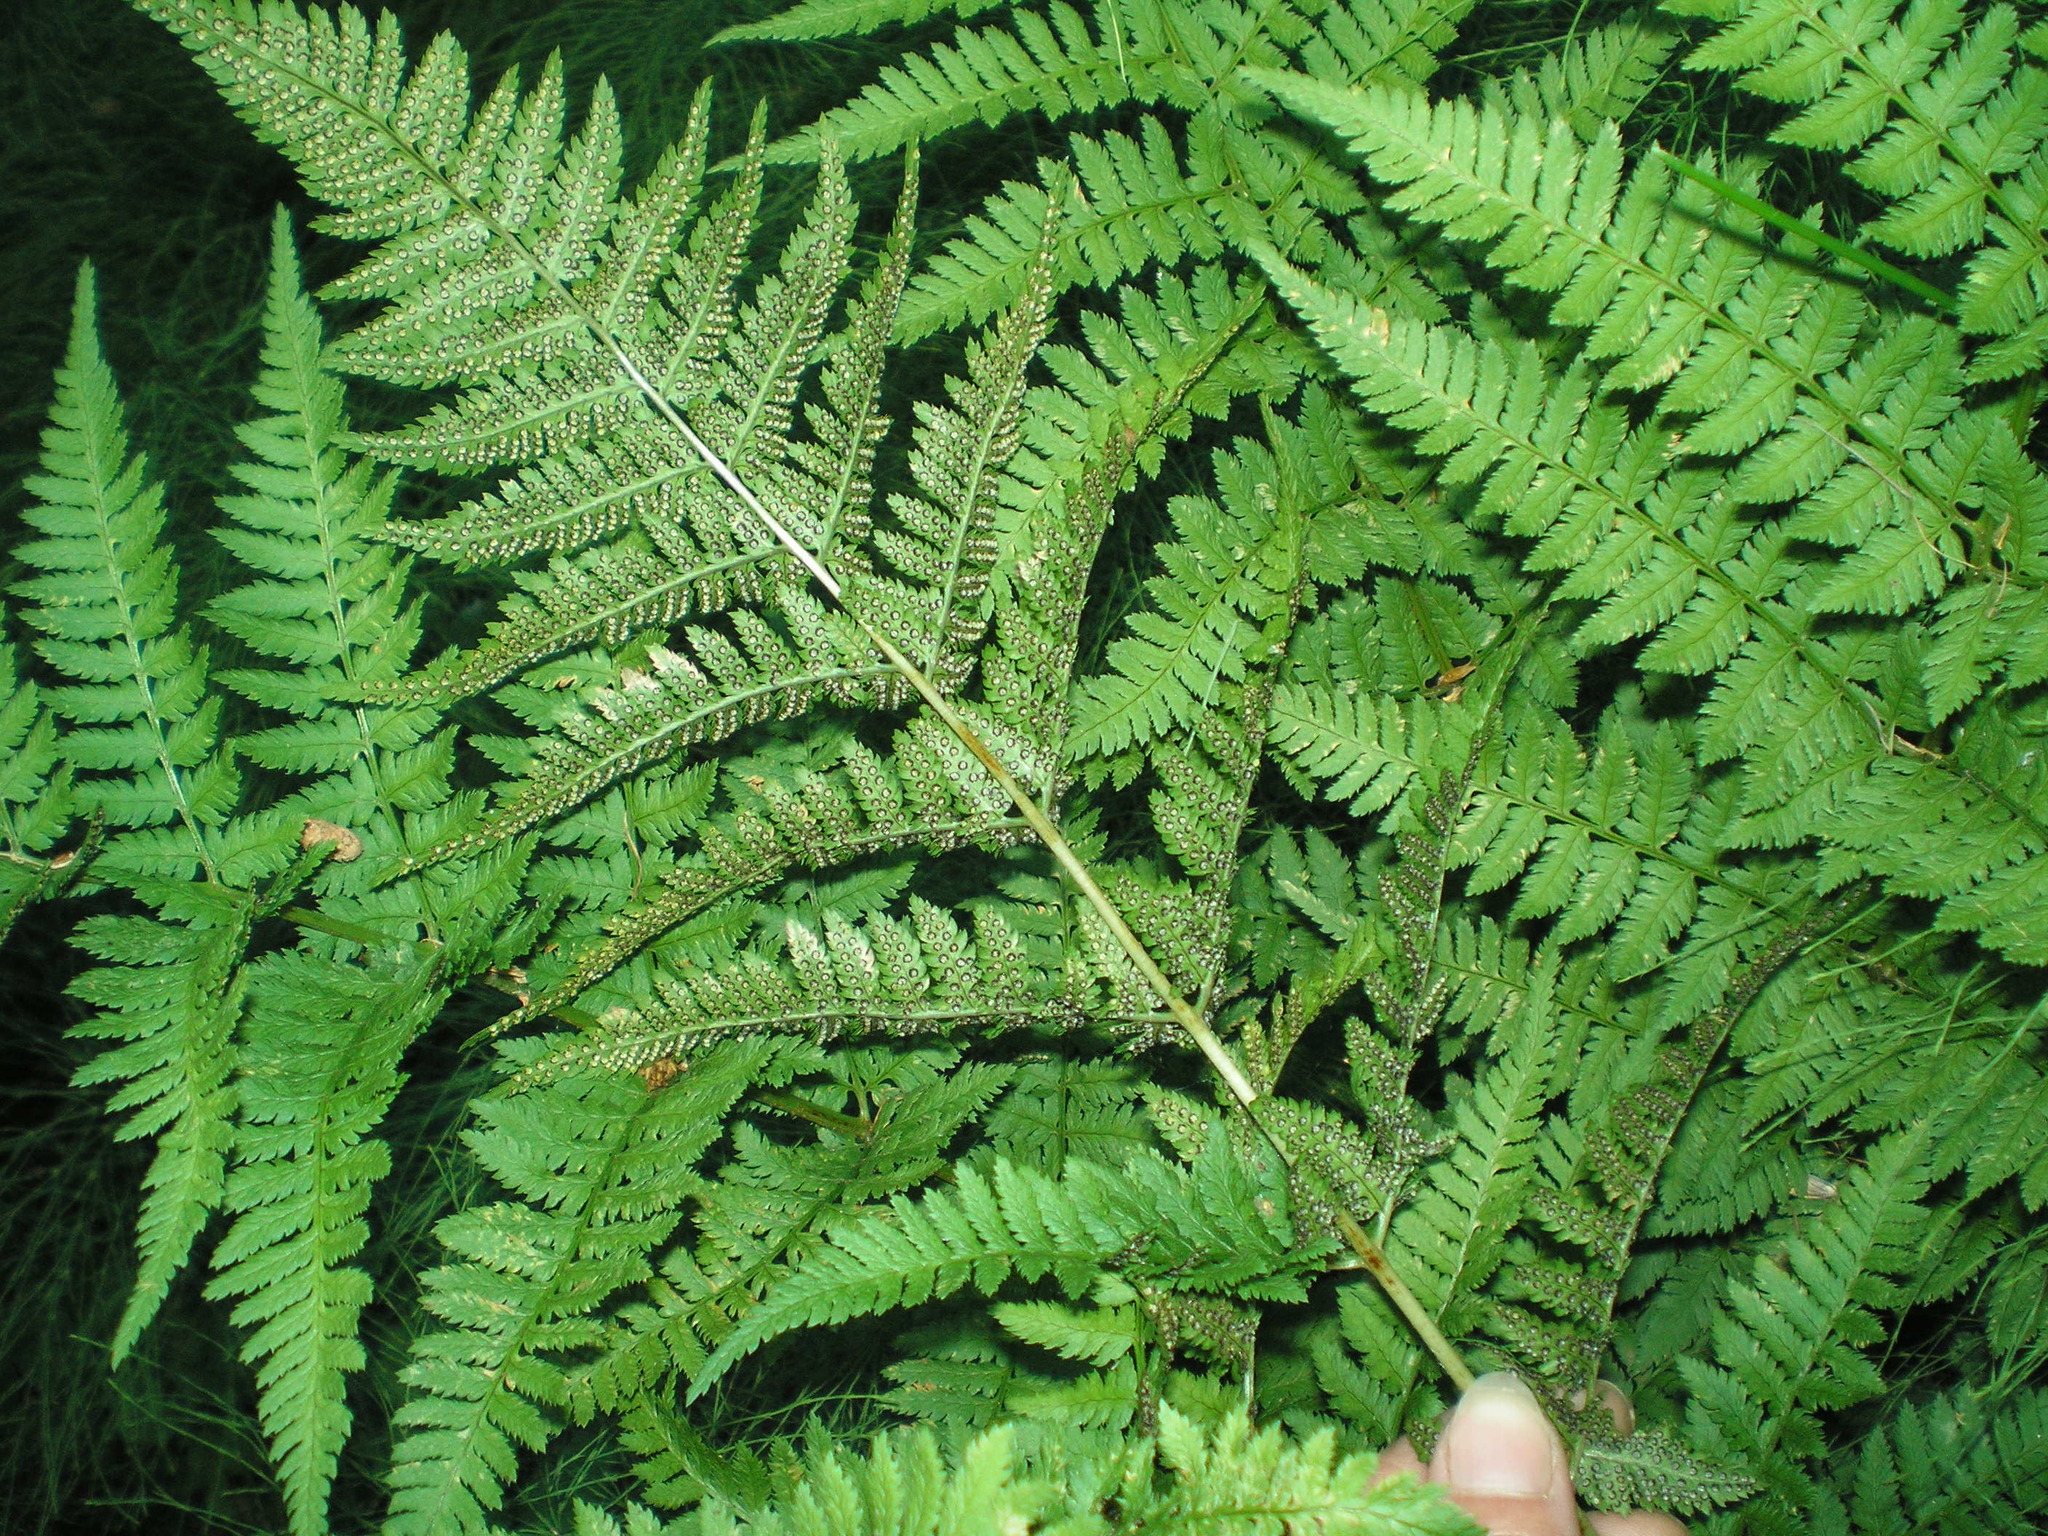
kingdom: Plantae
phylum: Tracheophyta
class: Polypodiopsida
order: Polypodiales
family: Dryopteridaceae
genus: Dryopteris
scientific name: Dryopteris carthusiana
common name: Narrow buckler-fern
